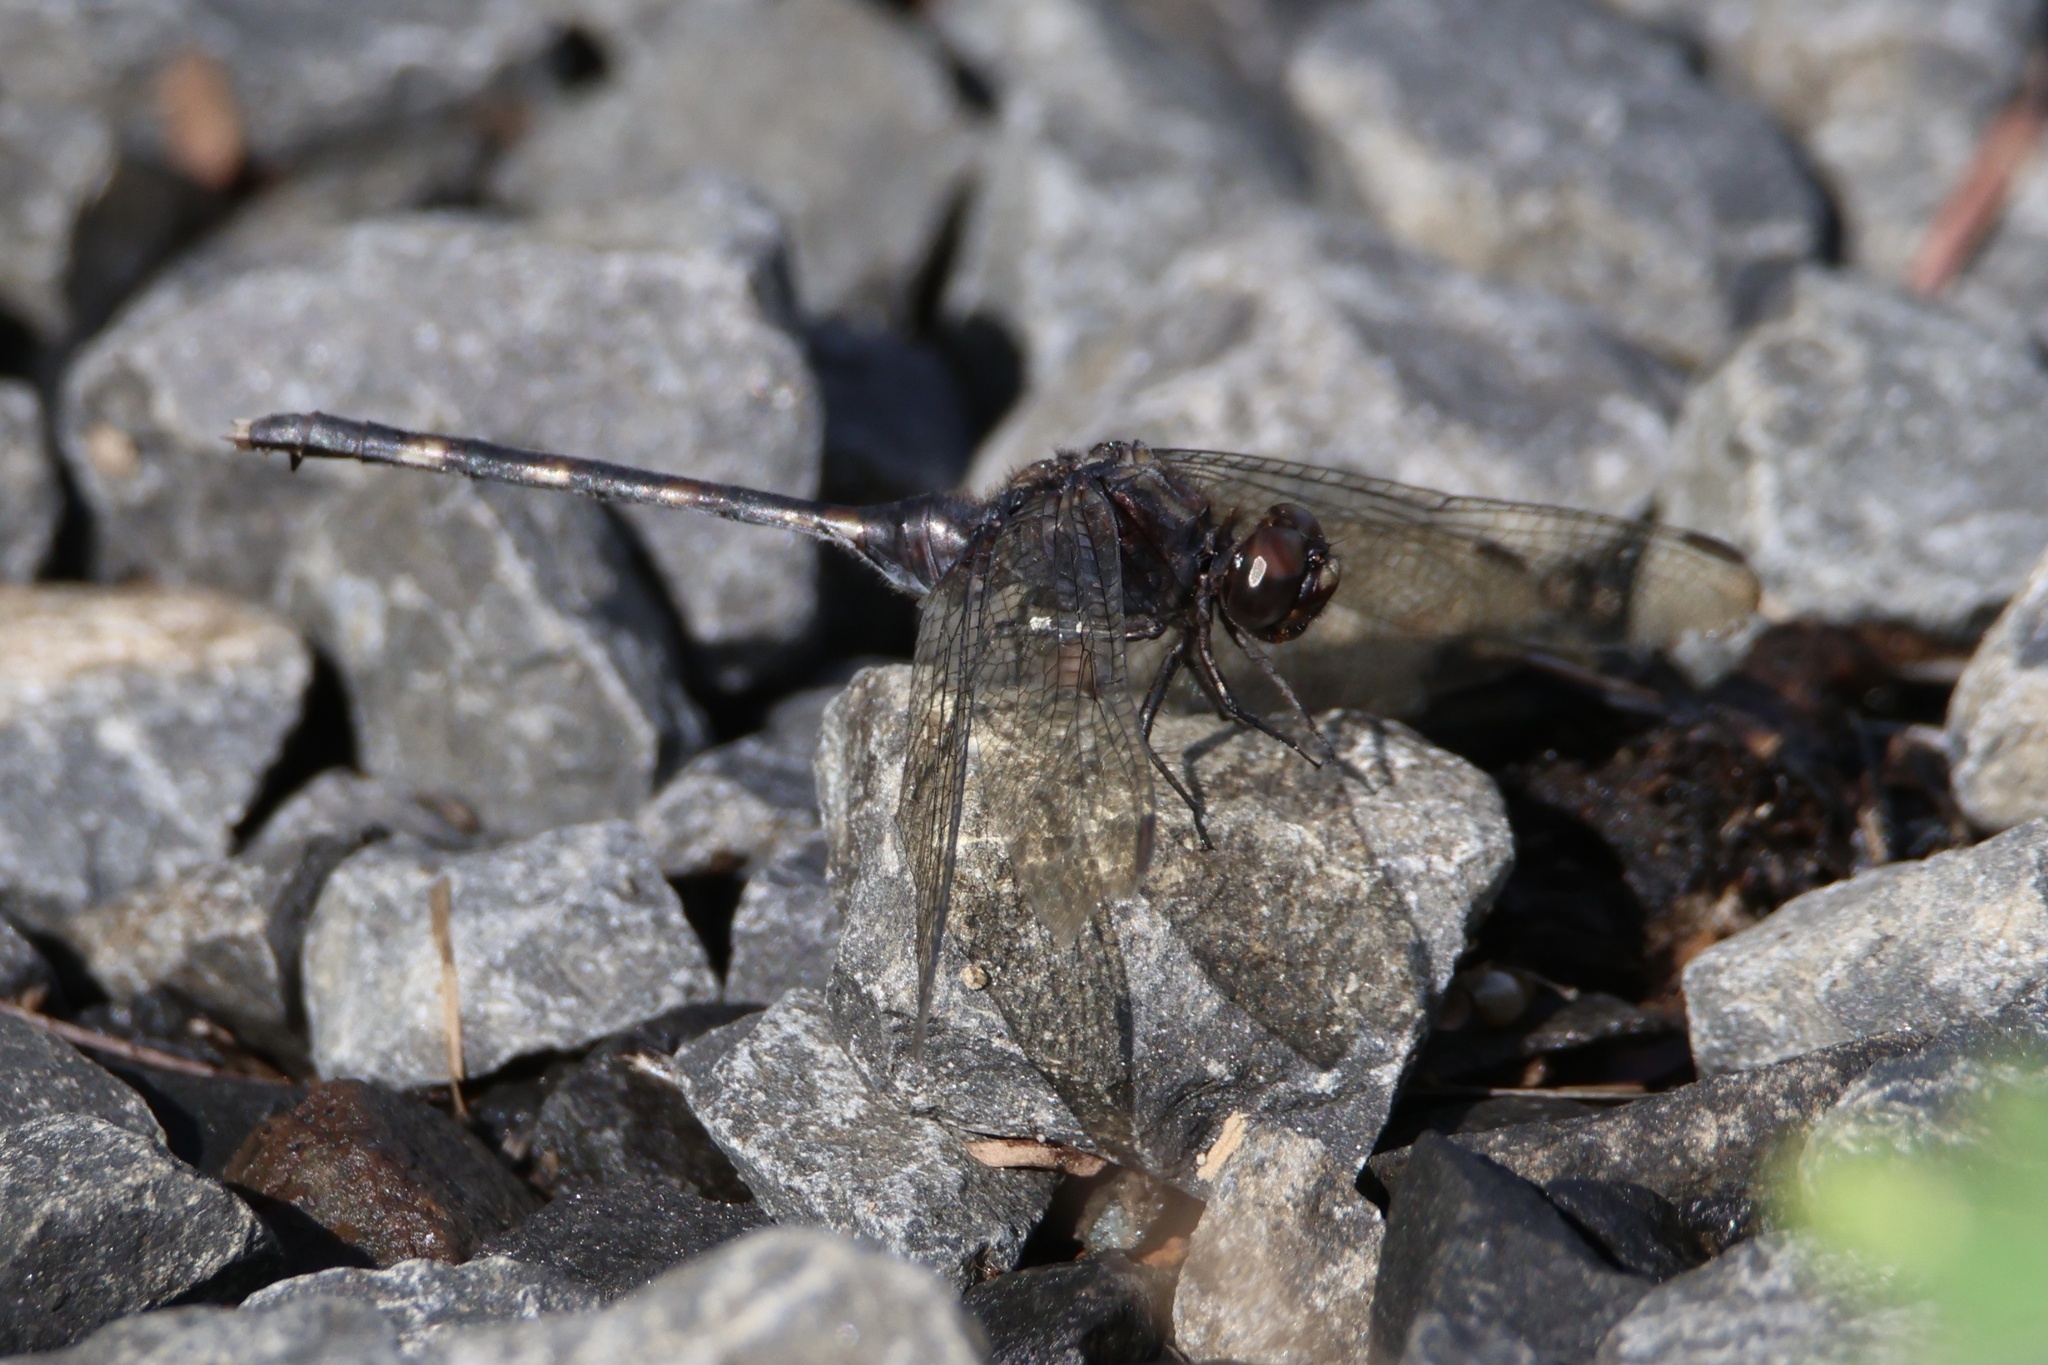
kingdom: Animalia
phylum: Arthropoda
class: Insecta
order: Odonata
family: Libellulidae
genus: Erythemis
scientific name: Erythemis plebeja
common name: Pin-tailed pondhawk
